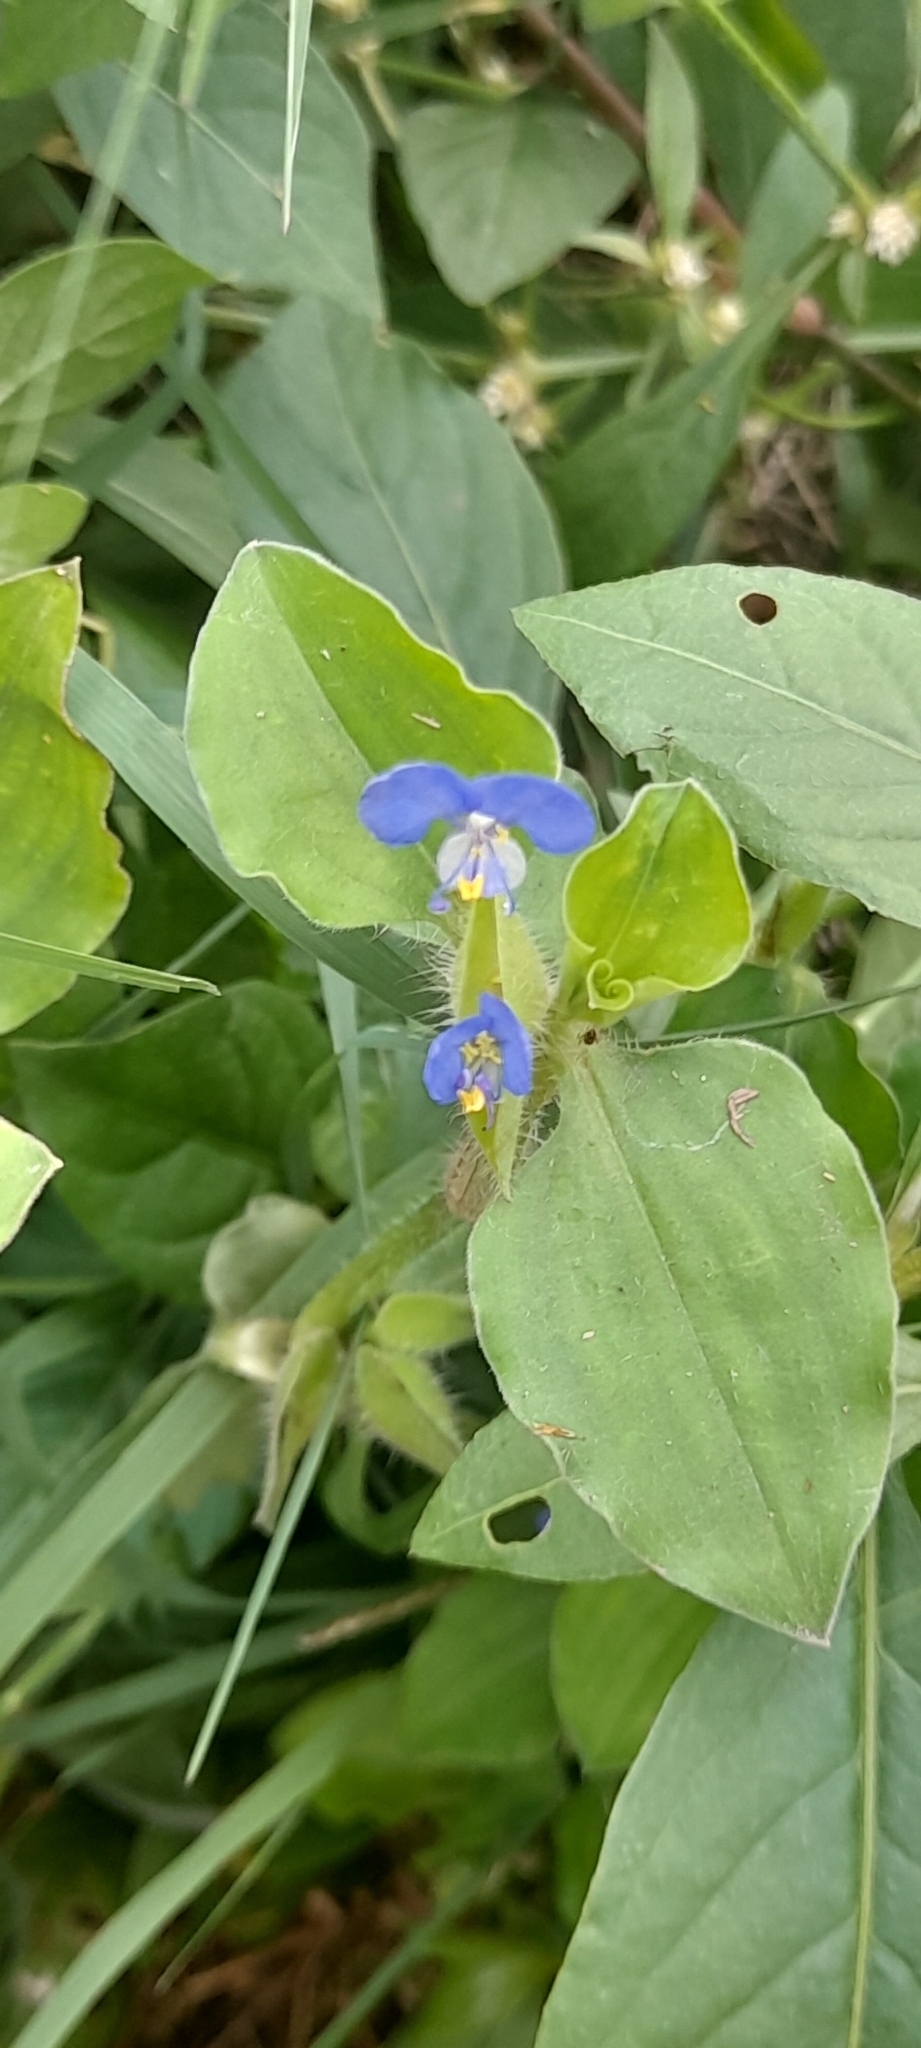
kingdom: Plantae
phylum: Tracheophyta
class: Liliopsida
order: Commelinales
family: Commelinaceae
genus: Commelina
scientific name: Commelina benghalensis
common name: Jio
